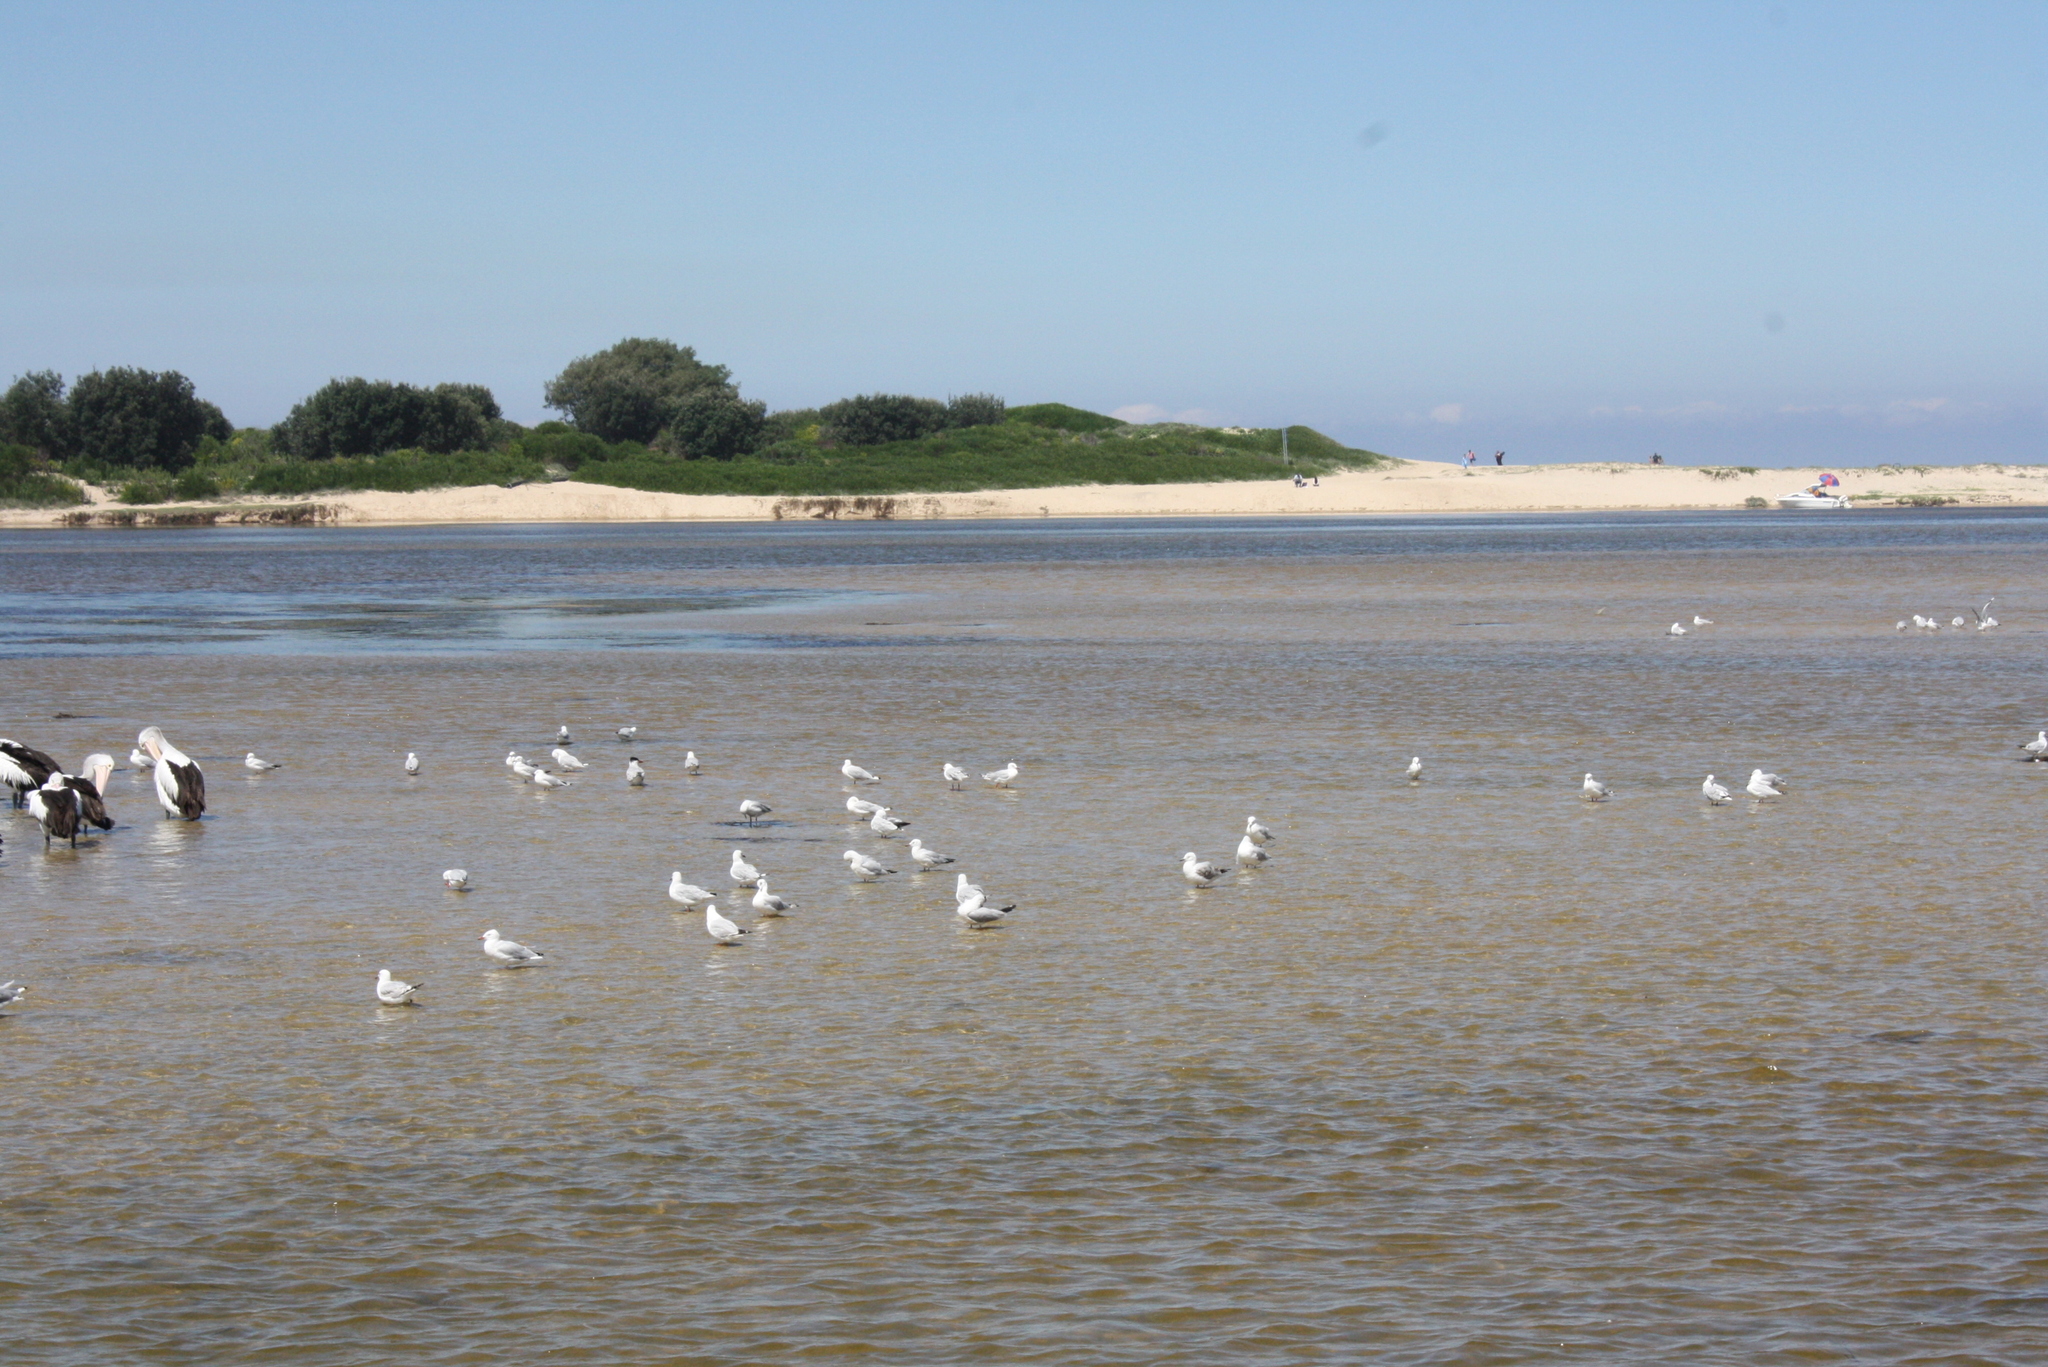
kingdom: Animalia
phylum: Chordata
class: Aves
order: Charadriiformes
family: Laridae
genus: Chroicocephalus
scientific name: Chroicocephalus novaehollandiae
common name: Silver gull
